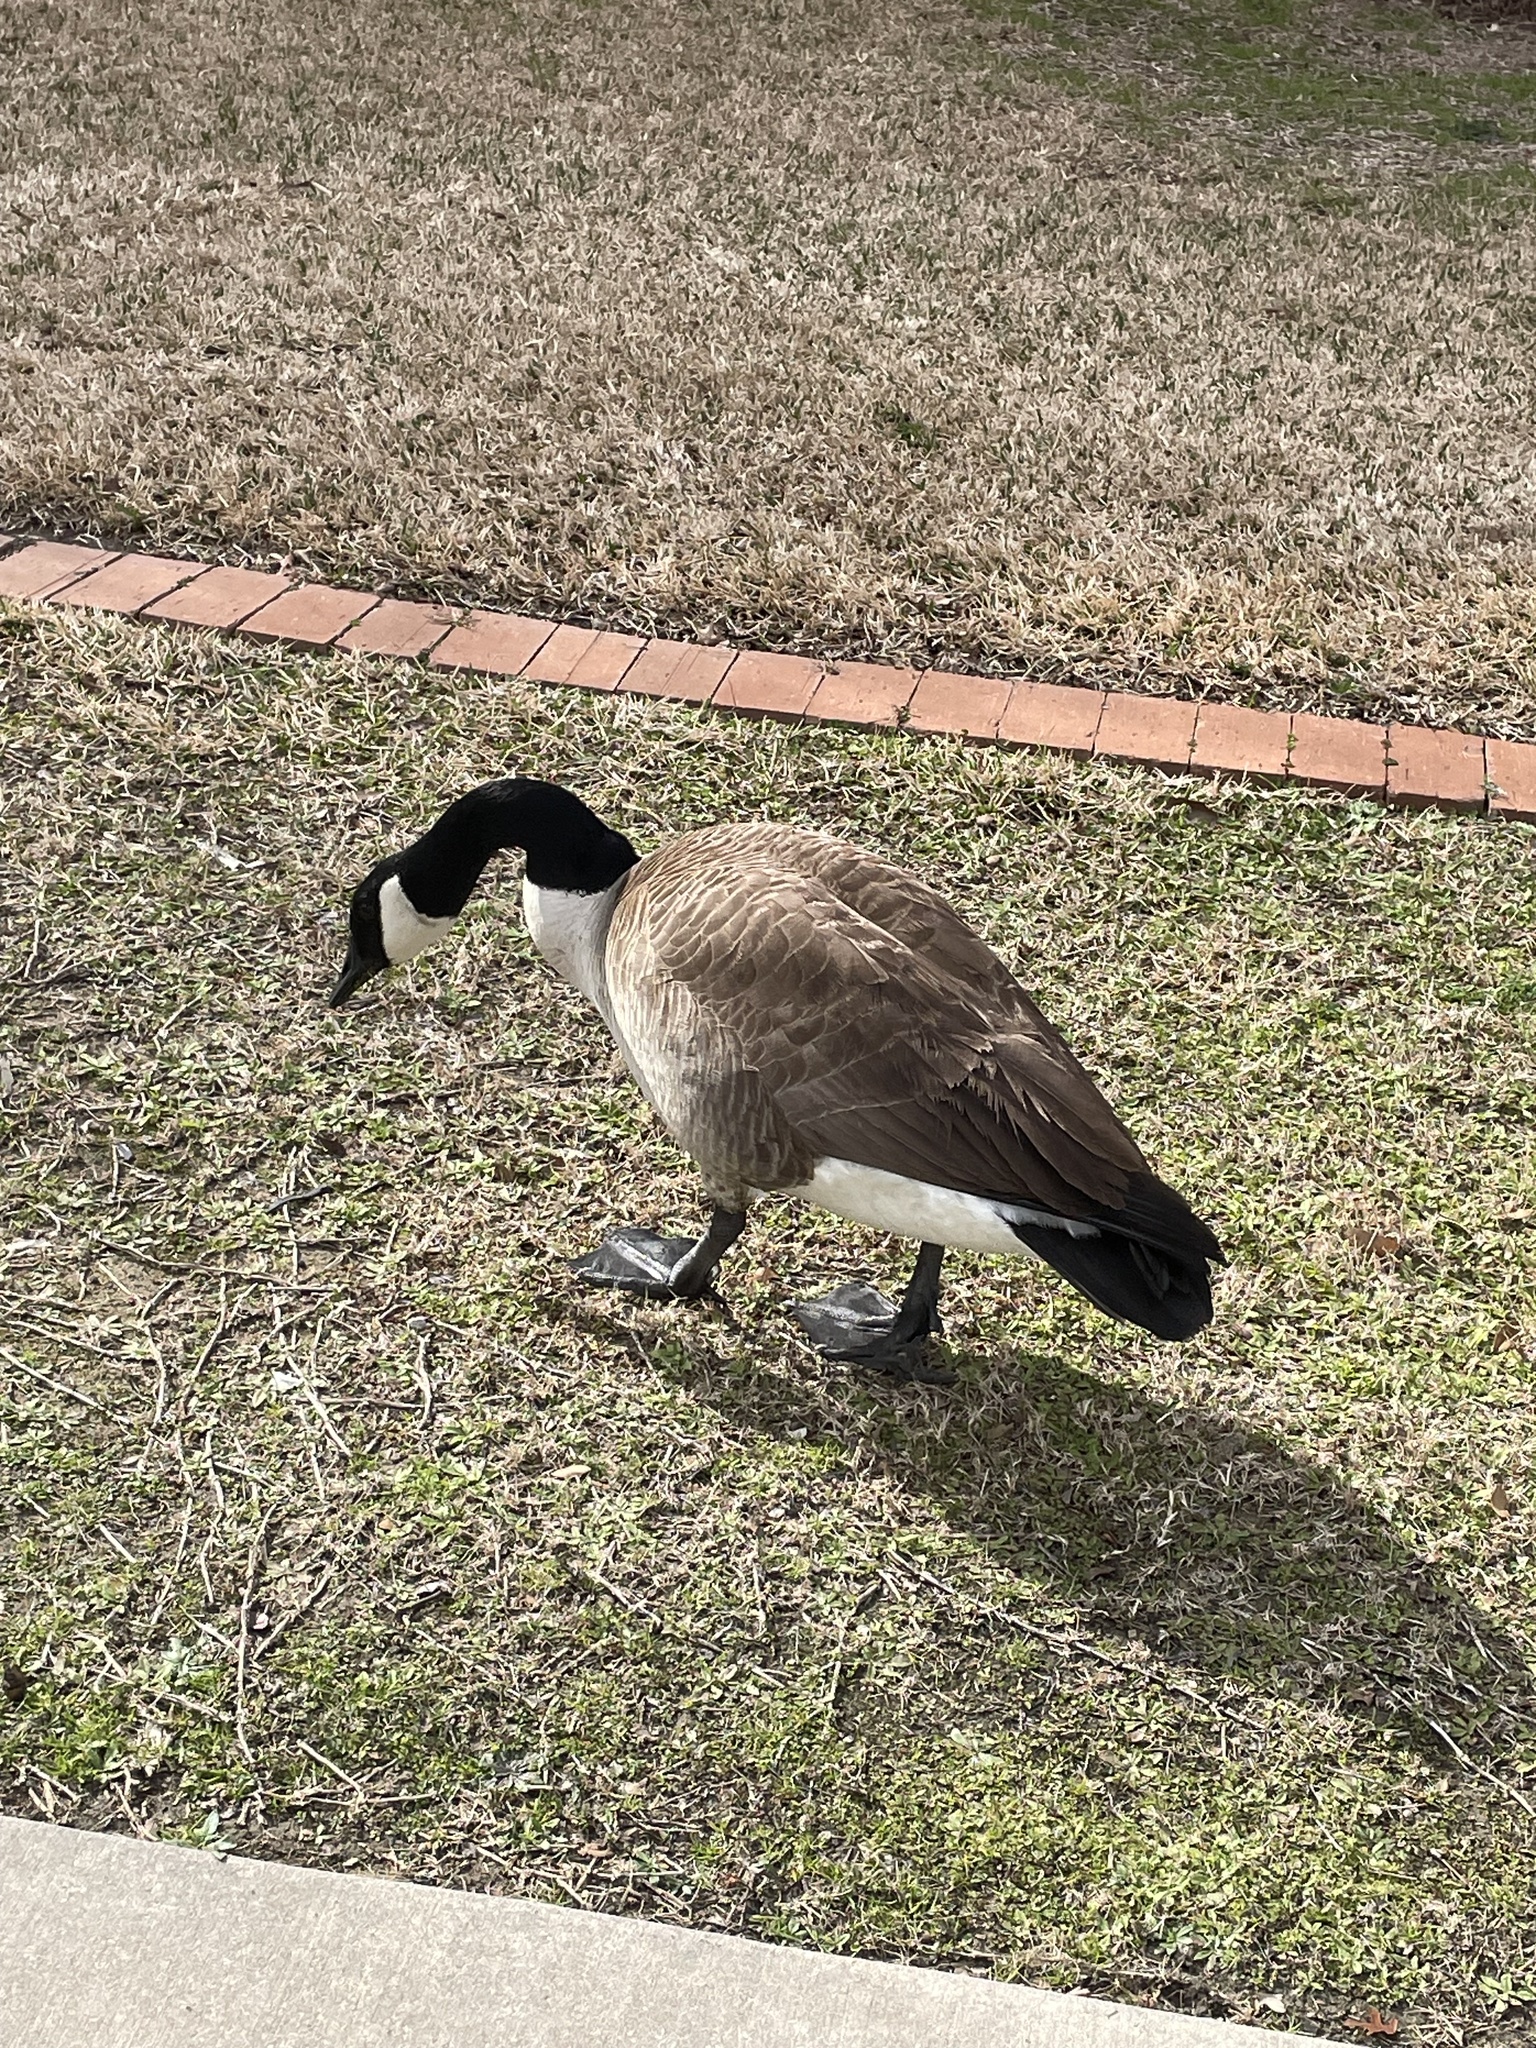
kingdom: Animalia
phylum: Chordata
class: Aves
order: Anseriformes
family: Anatidae
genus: Branta
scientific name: Branta canadensis
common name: Canada goose
